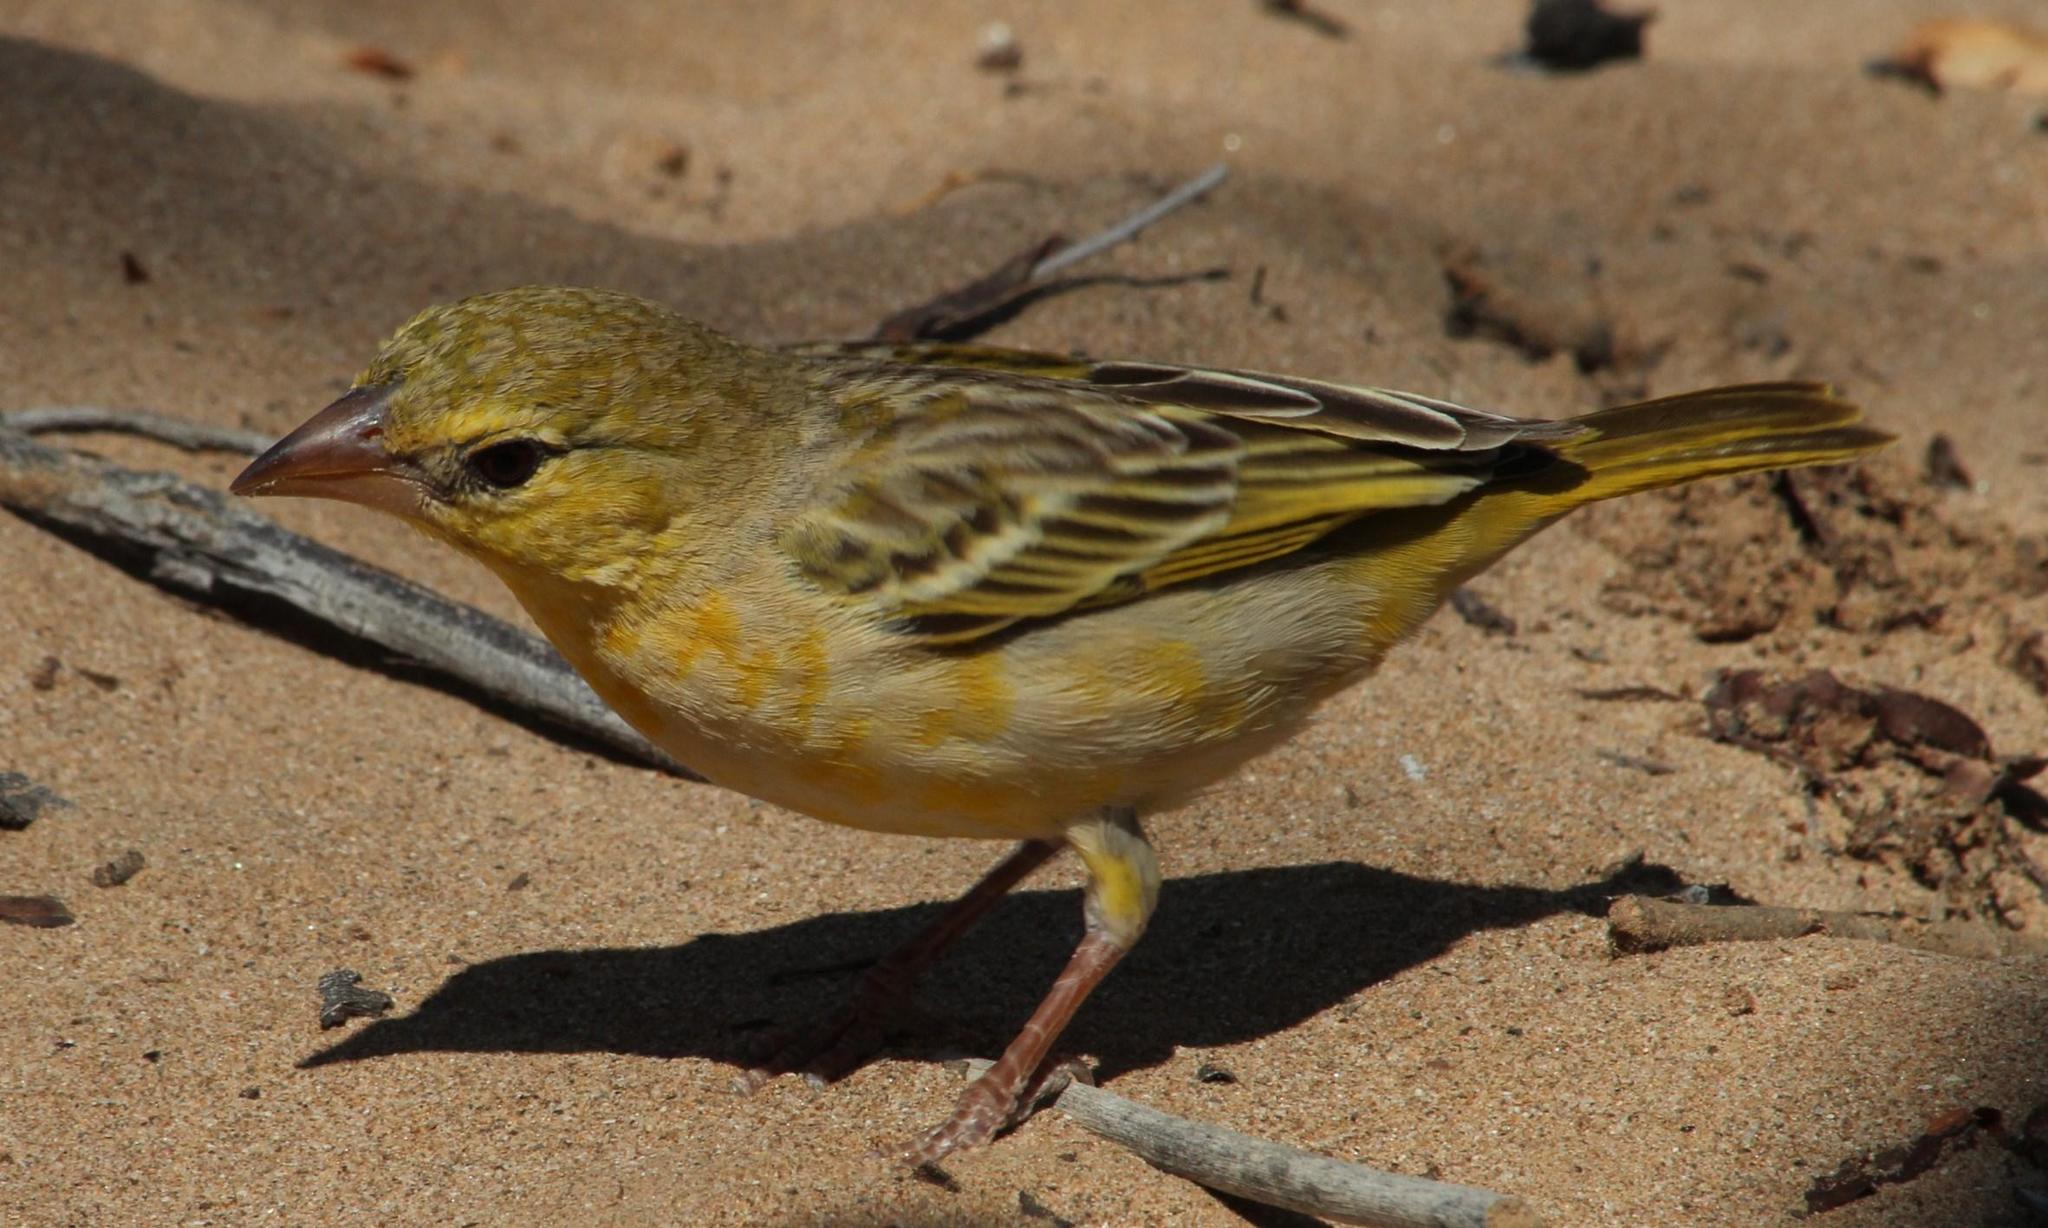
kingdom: Animalia
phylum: Chordata
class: Aves
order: Passeriformes
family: Ploceidae
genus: Ploceus
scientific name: Ploceus velatus
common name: Southern masked weaver
